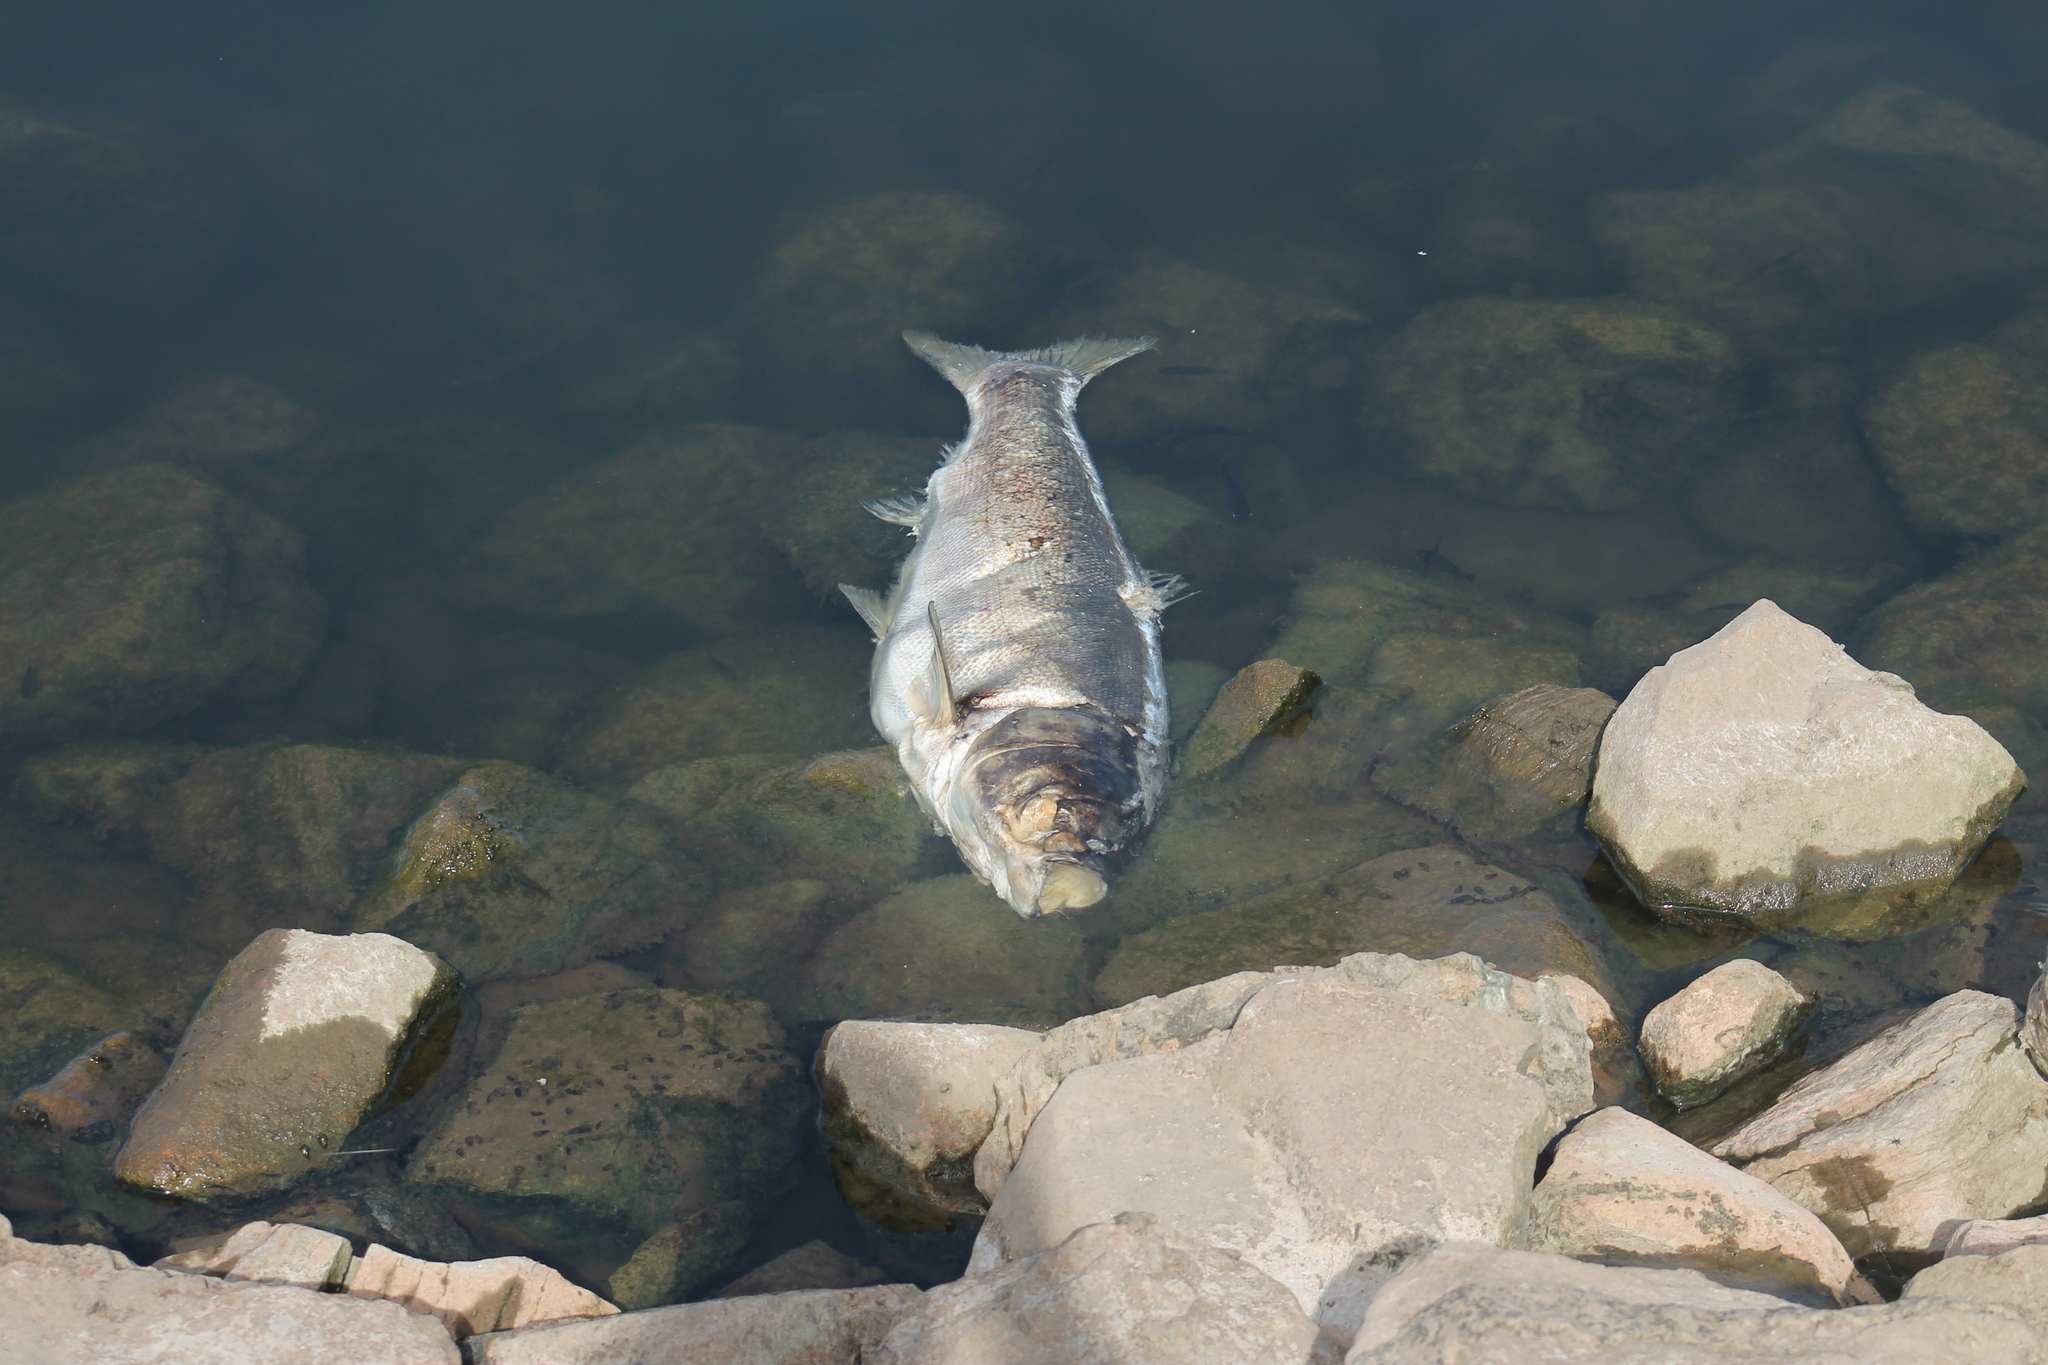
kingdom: Animalia
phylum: Chordata
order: Cypriniformes
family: Cyprinidae
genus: Hypophthalmichthys
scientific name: Hypophthalmichthys molitrix
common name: Silver carp
